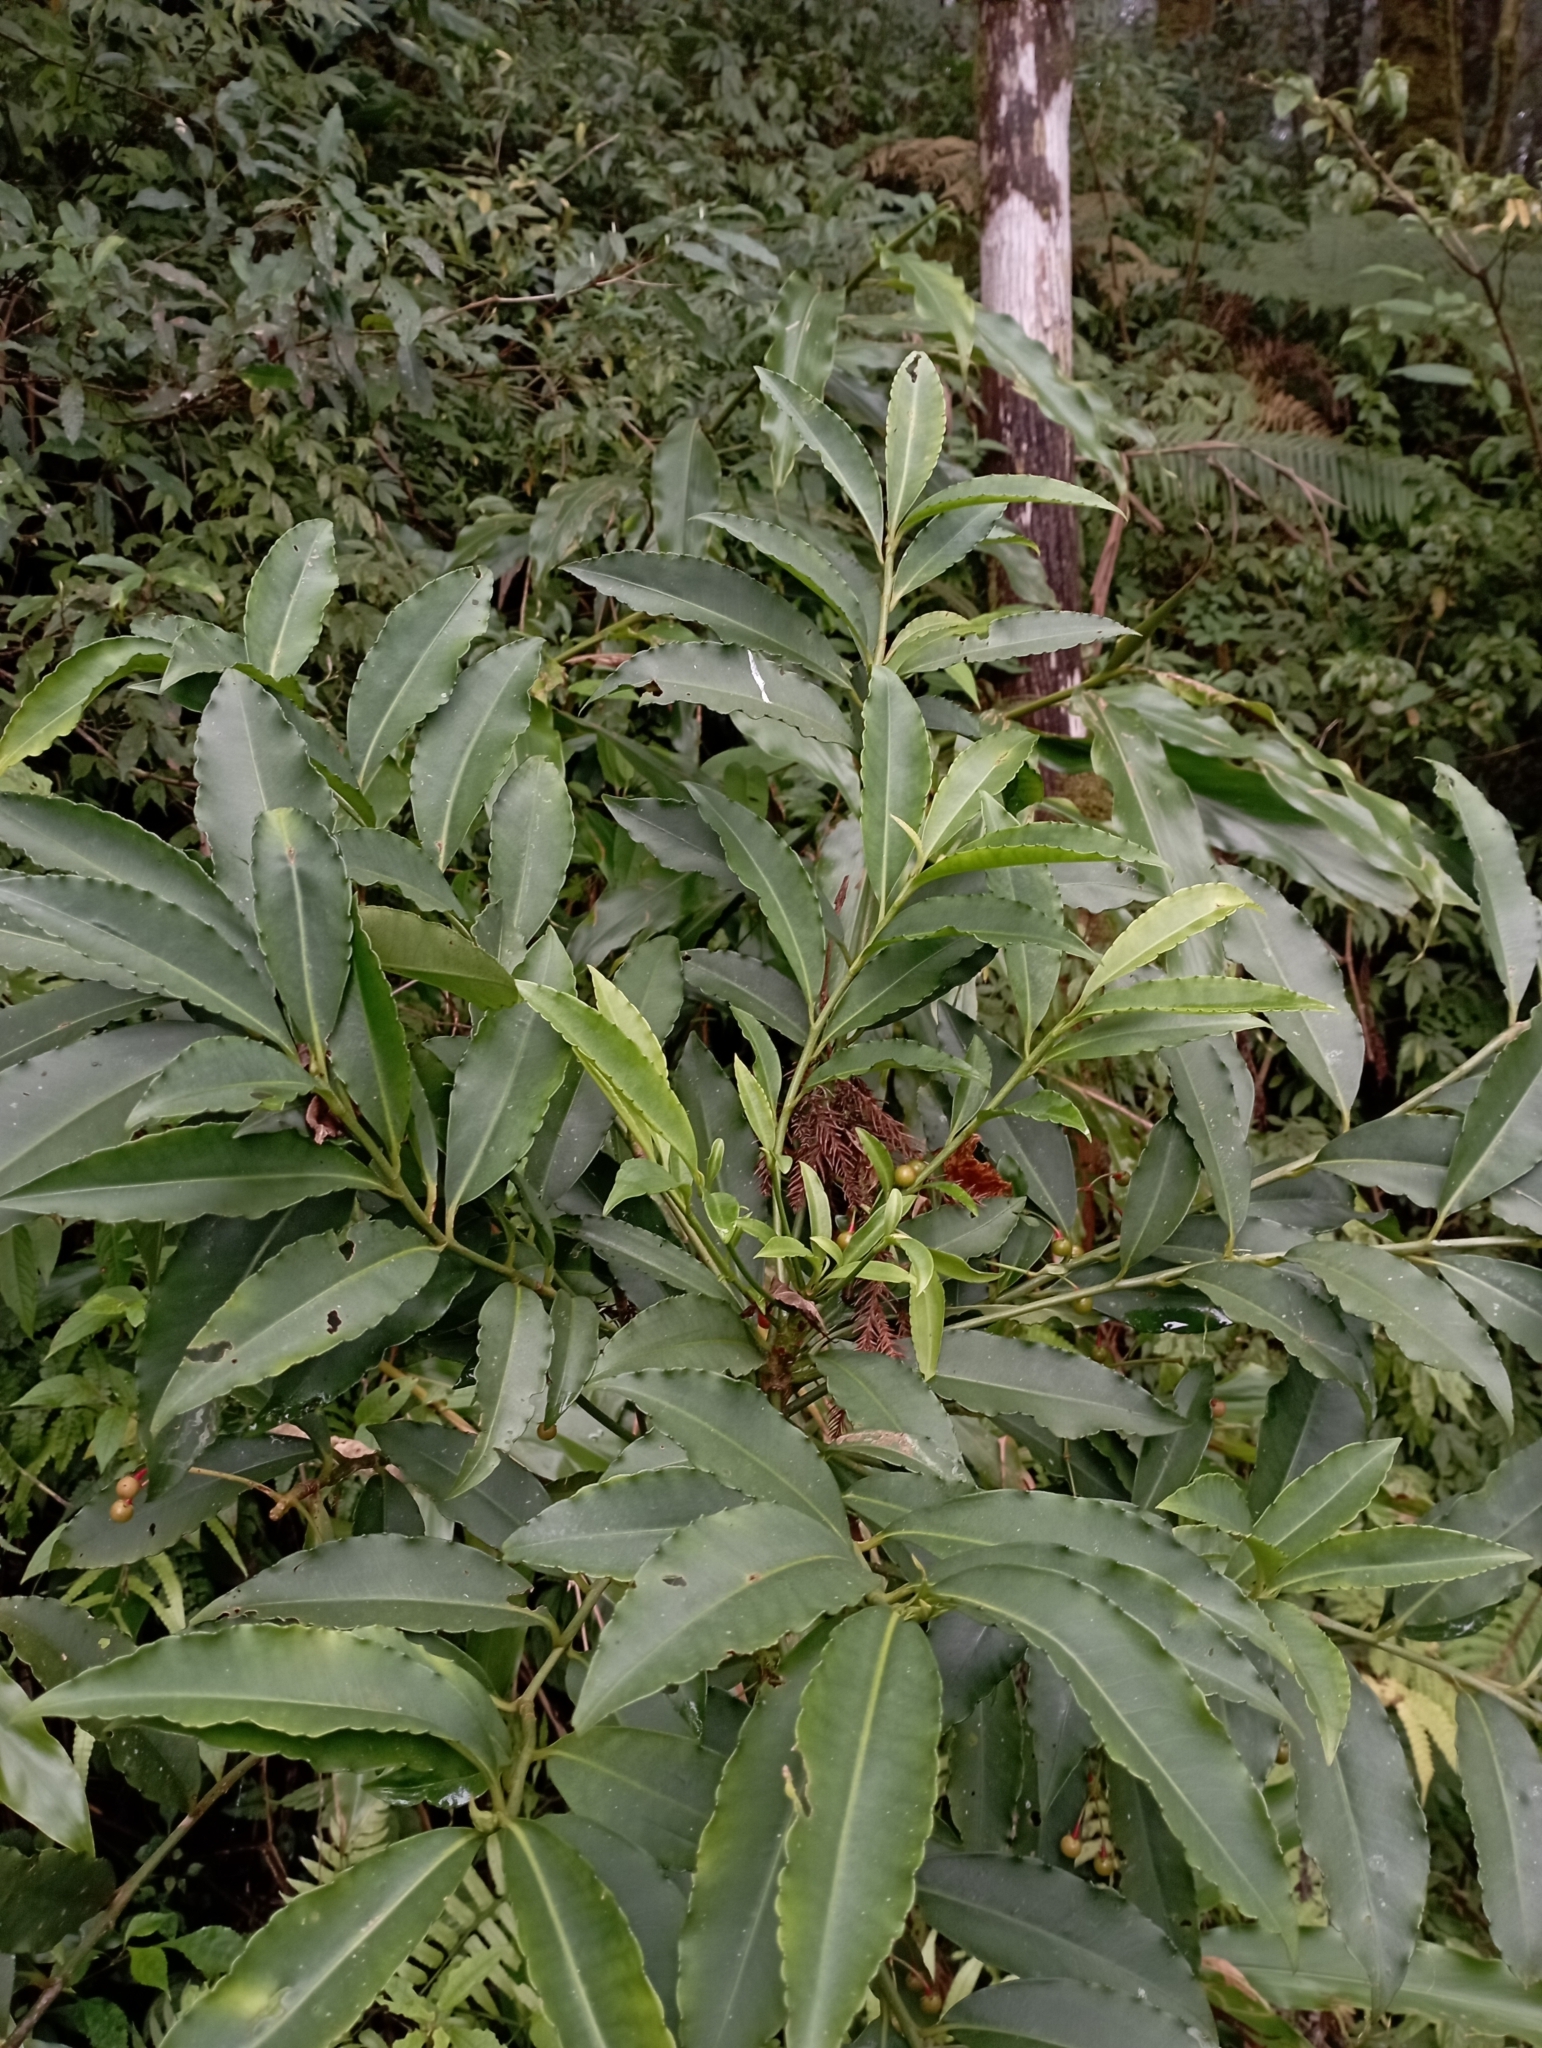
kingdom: Plantae
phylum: Tracheophyta
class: Magnoliopsida
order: Ericales
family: Primulaceae
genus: Ardisia
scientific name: Ardisia polysticta
